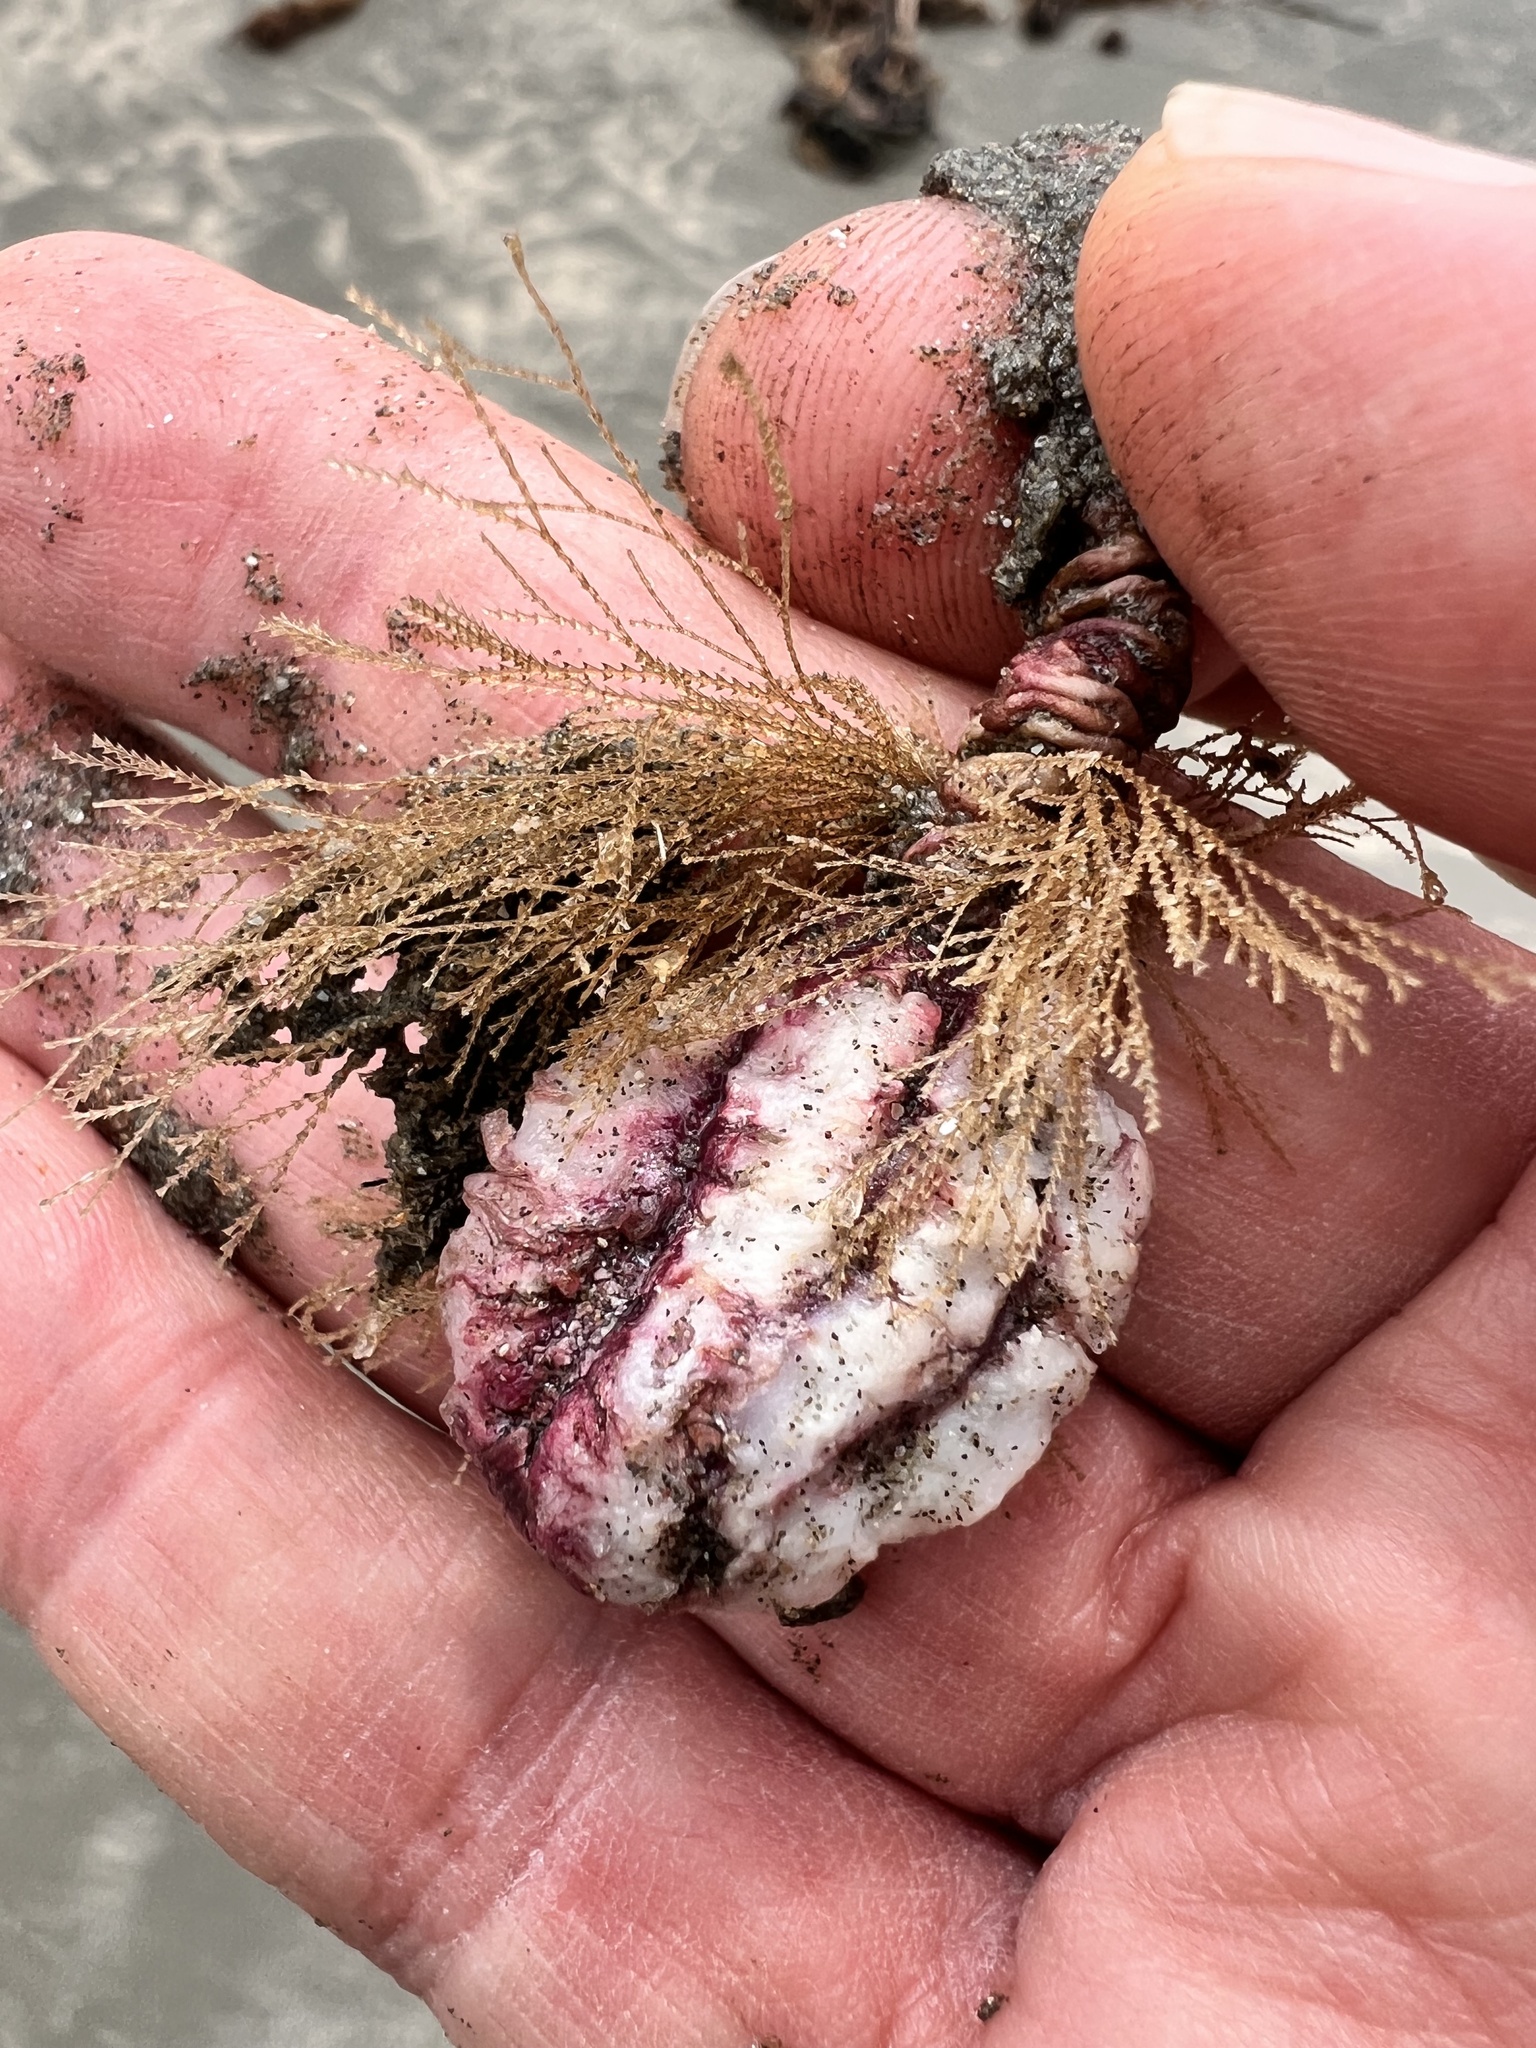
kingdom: Animalia
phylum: Chordata
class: Ascidiacea
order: Stolidobranchia
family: Pyuridae
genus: Pyura
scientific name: Pyura pachydermatina
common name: Sea tulip
